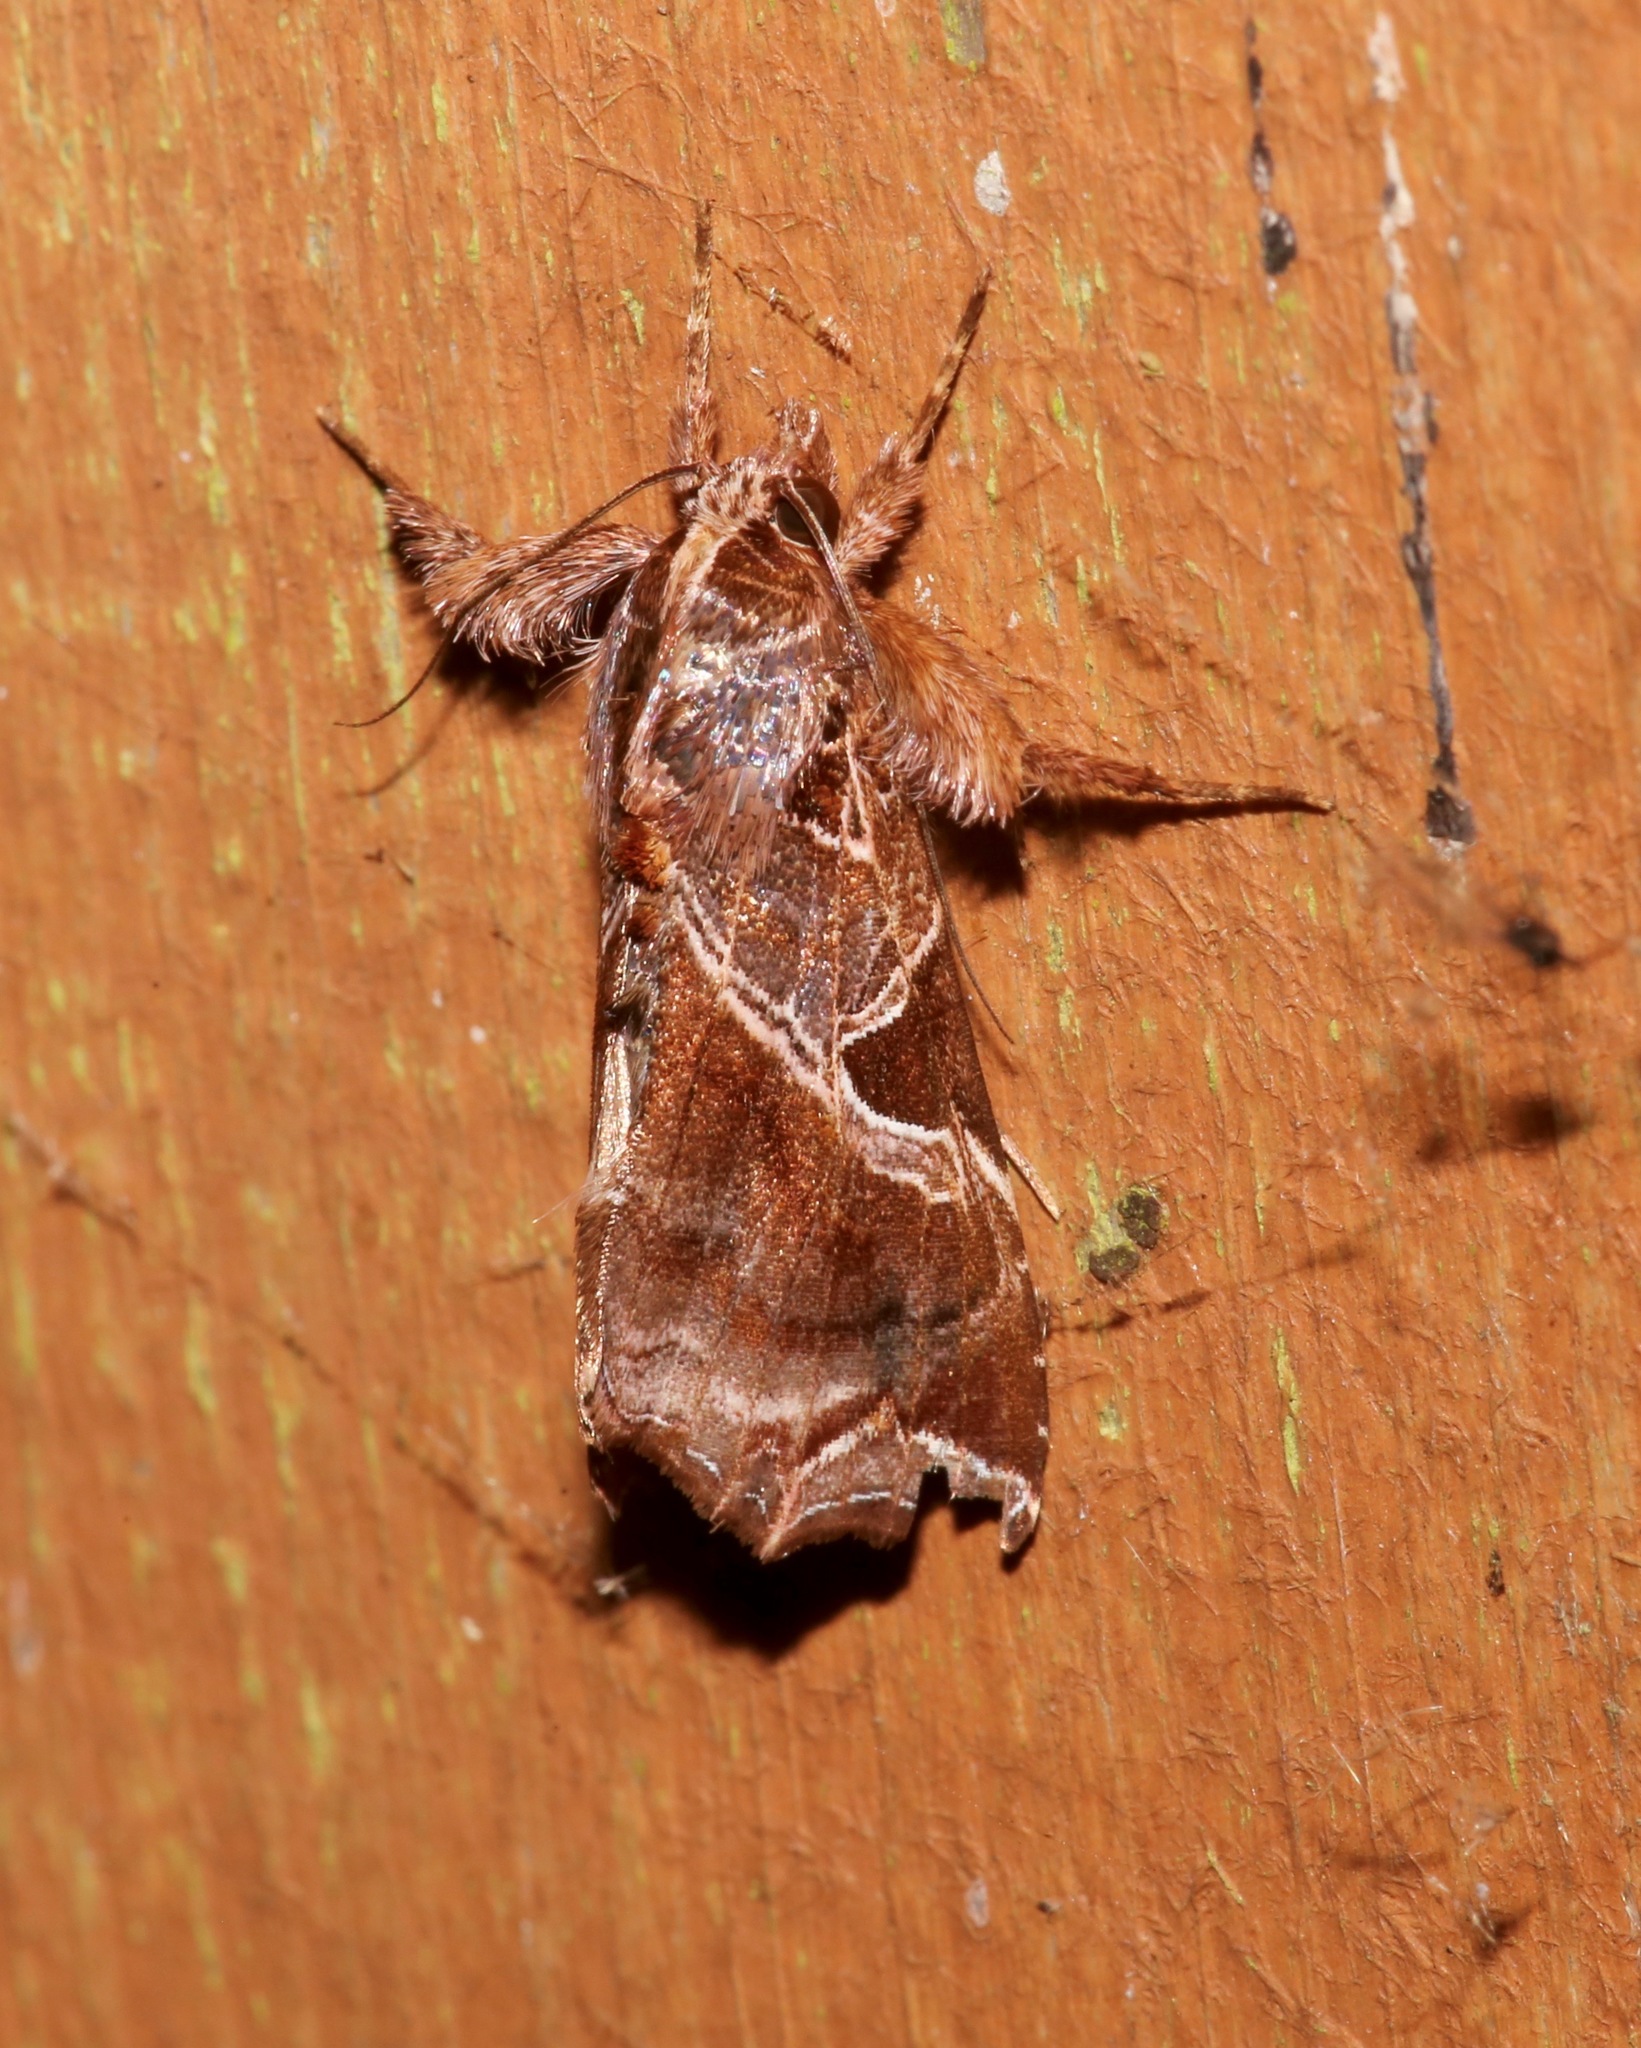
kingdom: Animalia
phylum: Arthropoda
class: Insecta
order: Lepidoptera
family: Noctuidae
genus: Callopistria
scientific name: Callopistria floridensis
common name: Florida fern moth
